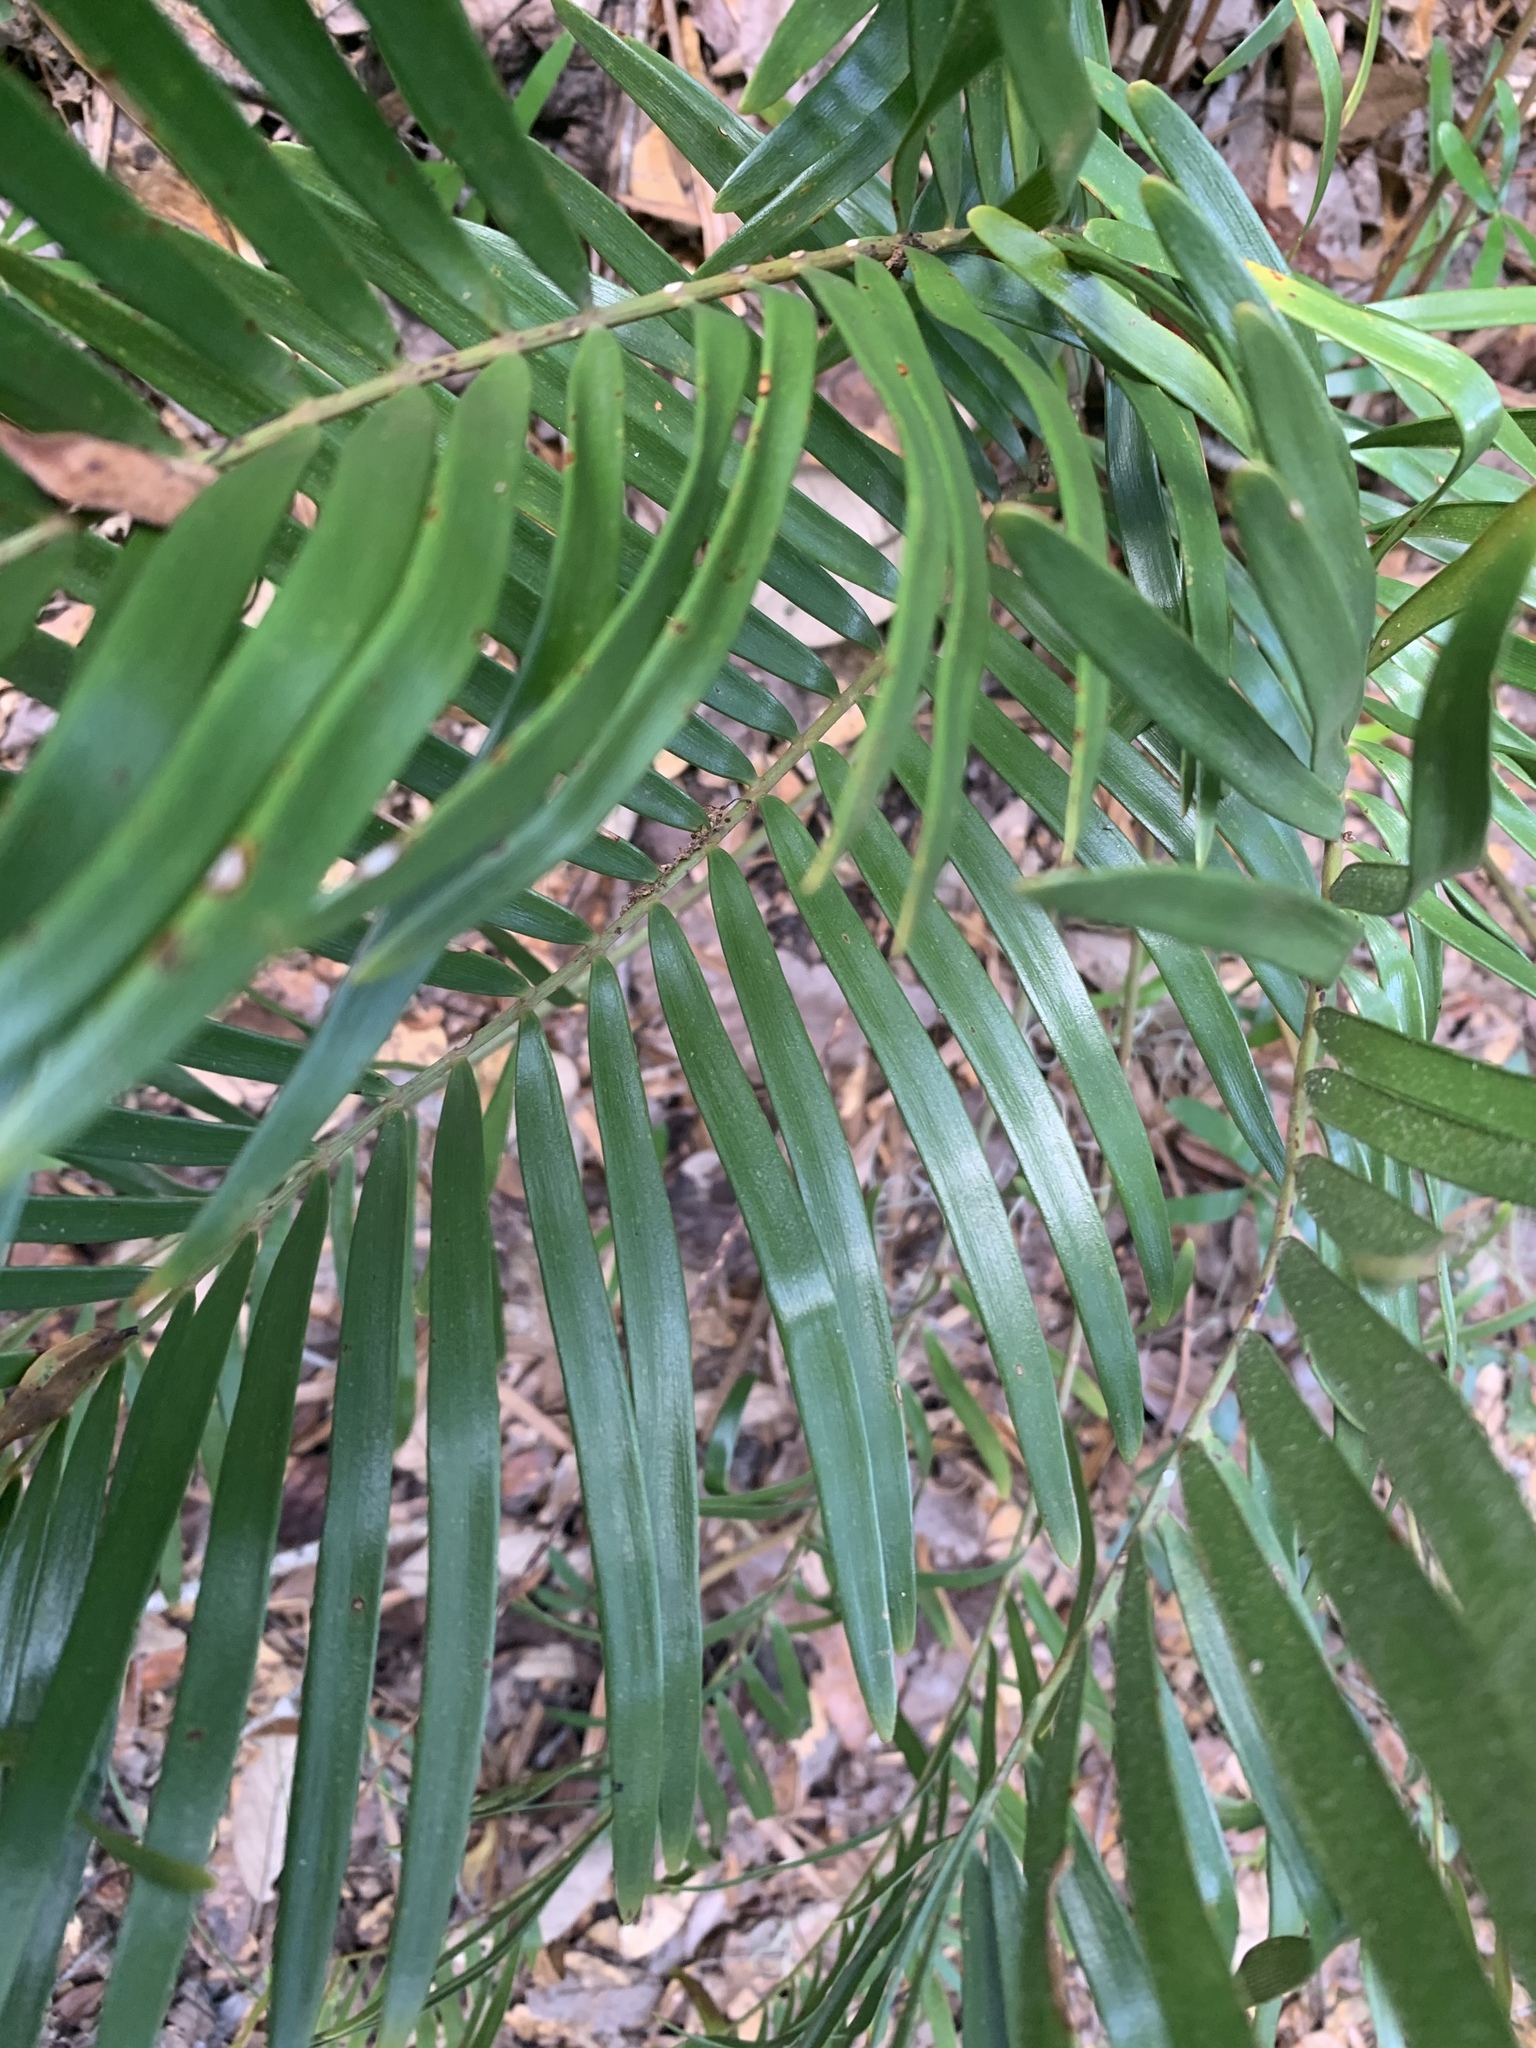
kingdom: Plantae
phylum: Tracheophyta
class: Cycadopsida
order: Cycadales
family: Zamiaceae
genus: Zamia
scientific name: Zamia integrifolia
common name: Florida arrowroot
